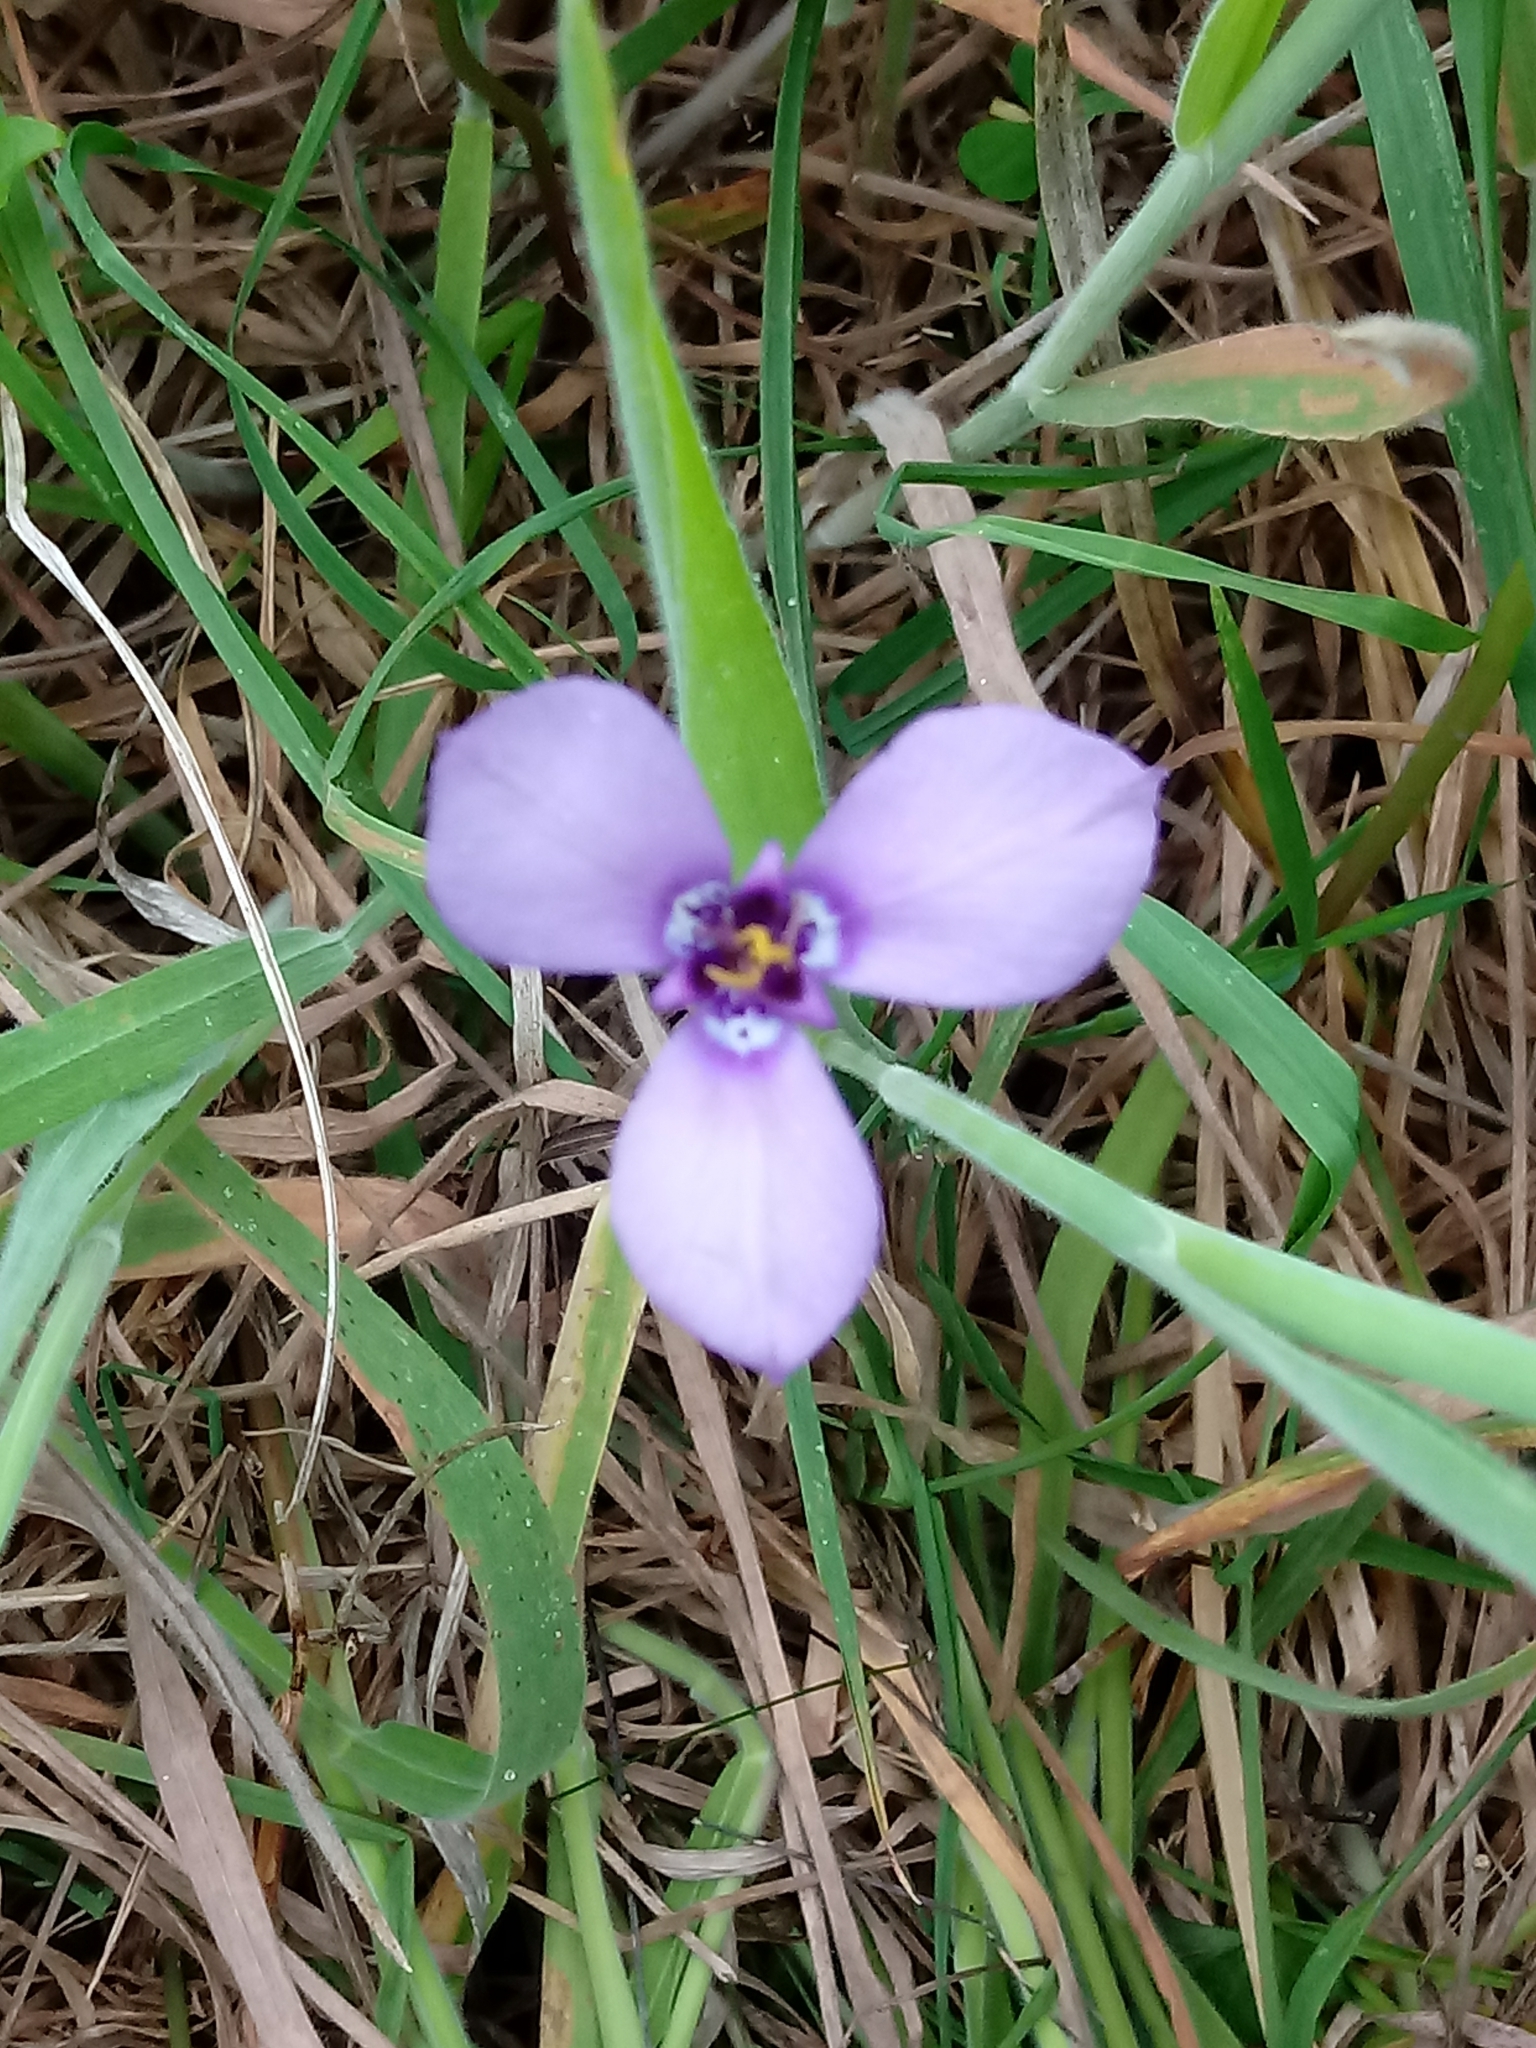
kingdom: Plantae
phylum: Tracheophyta
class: Liliopsida
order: Asparagales
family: Iridaceae
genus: Herbertia
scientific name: Herbertia lahue
